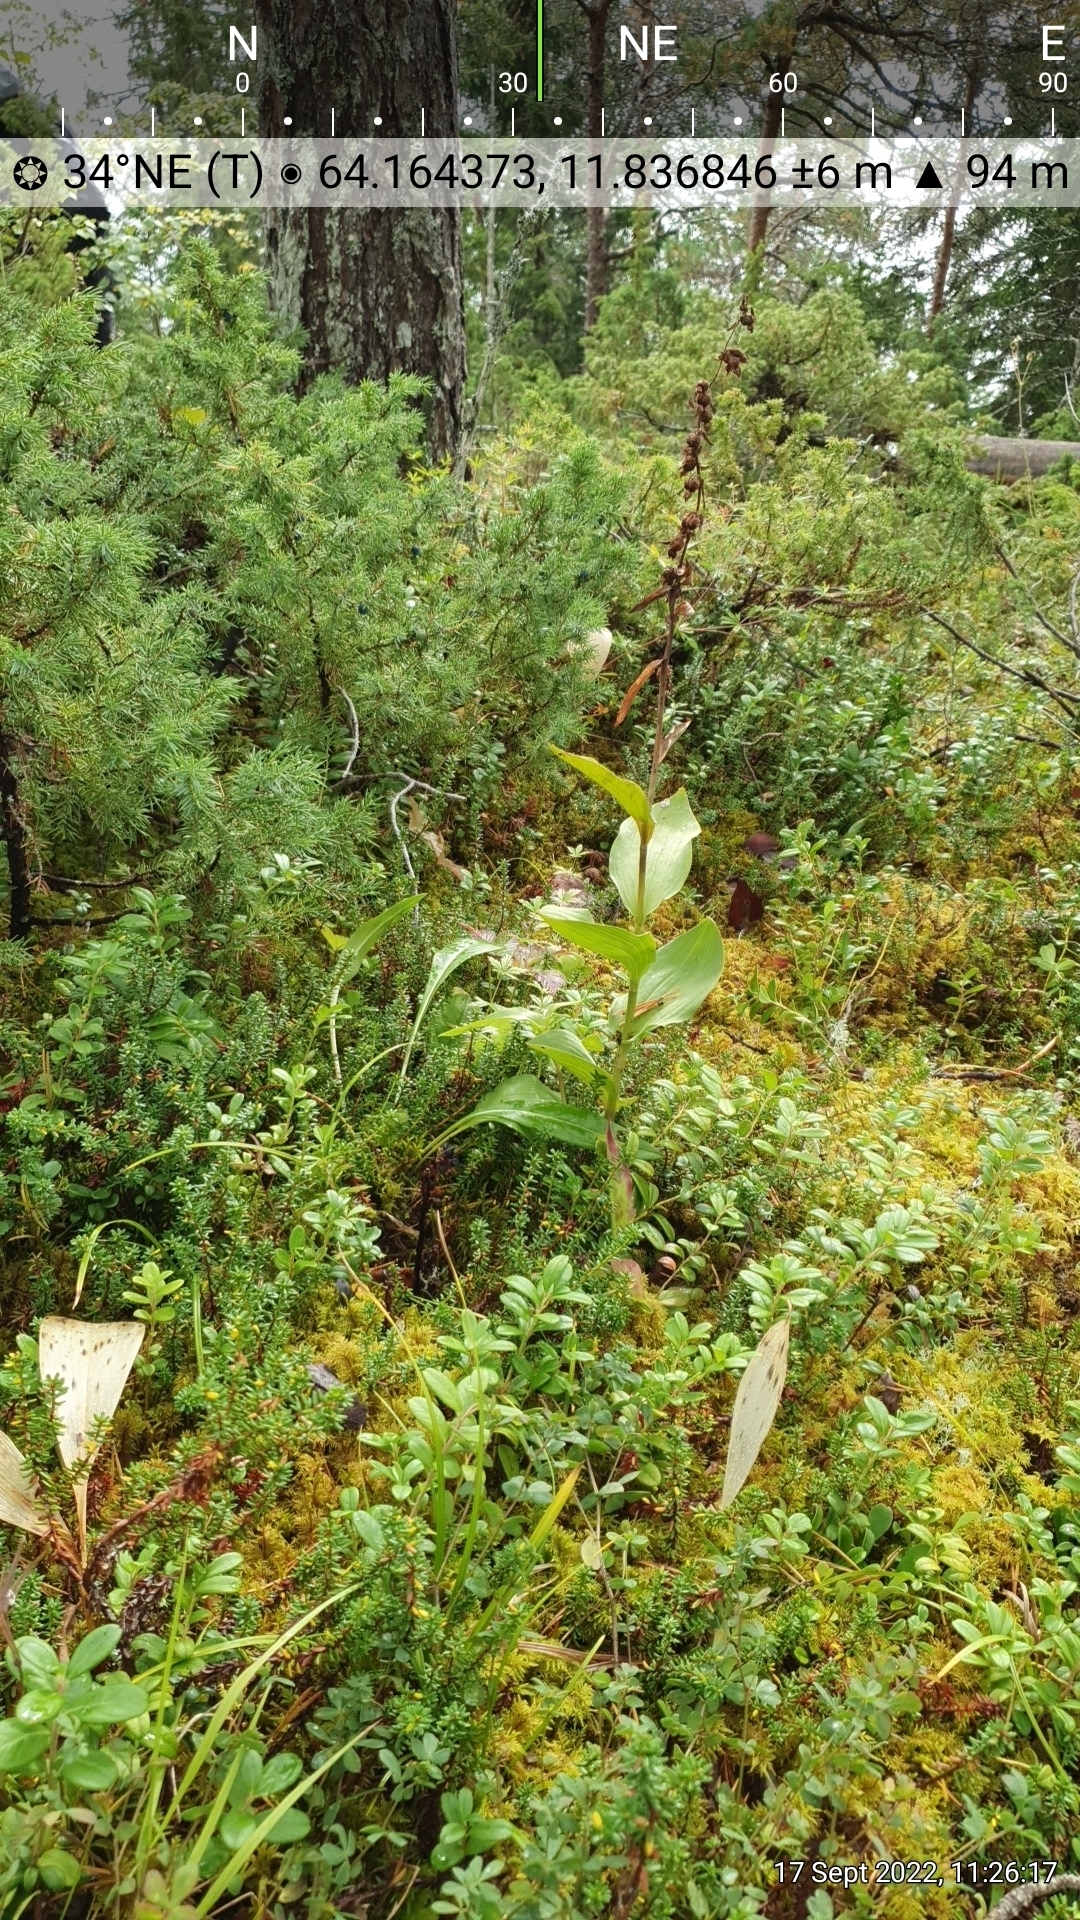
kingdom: Plantae
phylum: Tracheophyta
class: Magnoliopsida
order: Ericales
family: Ericaceae
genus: Hypopitys
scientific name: Hypopitys monotropa
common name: Yellow bird's-nest
